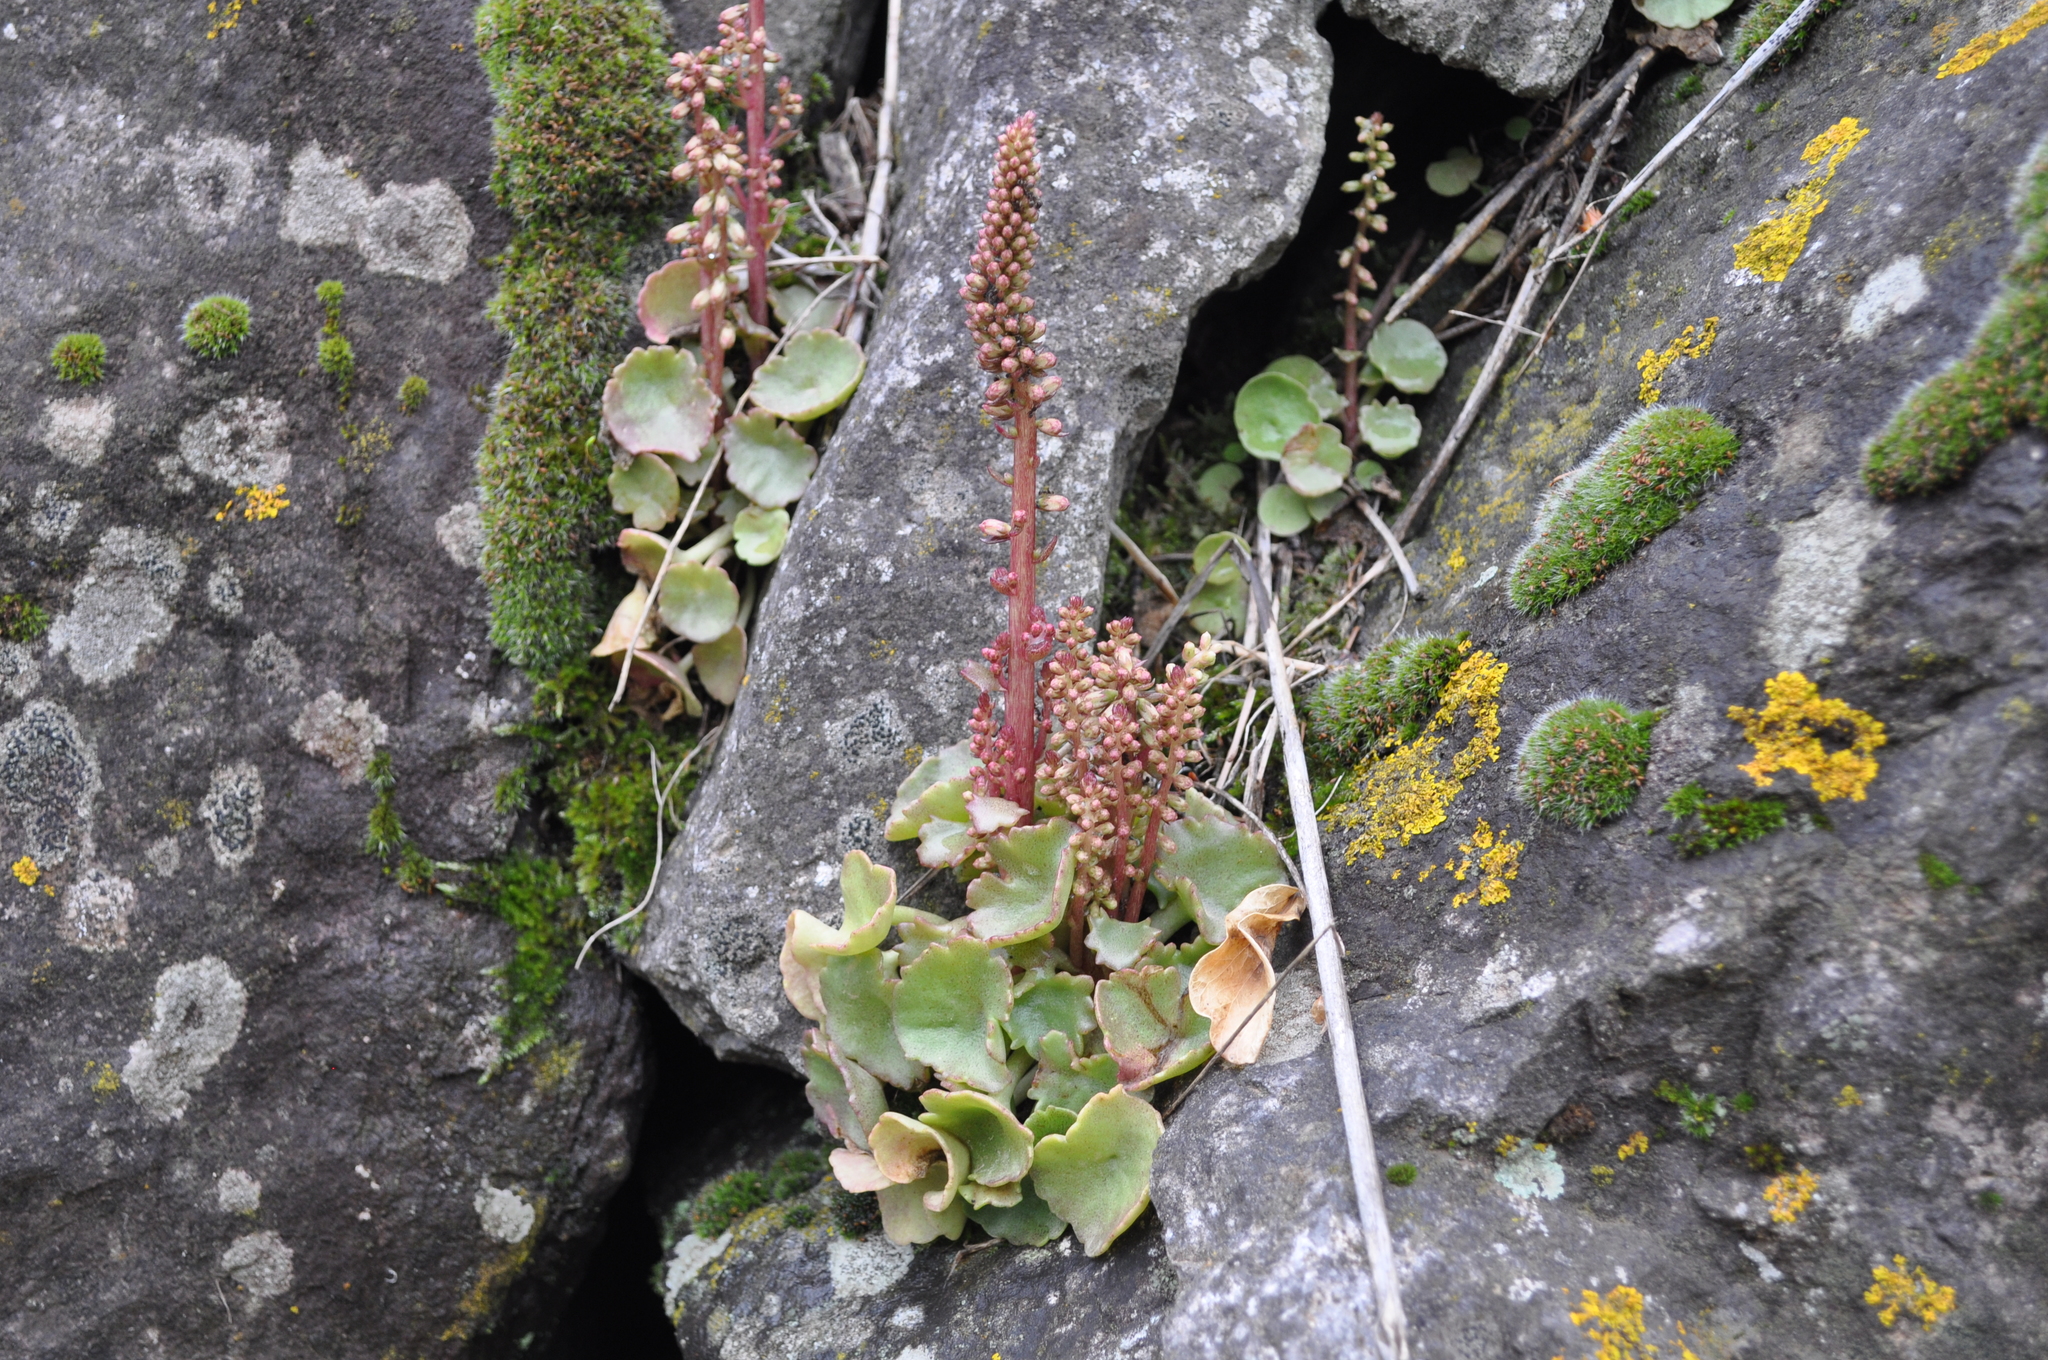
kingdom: Plantae
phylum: Tracheophyta
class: Magnoliopsida
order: Saxifragales
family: Crassulaceae
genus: Umbilicus
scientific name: Umbilicus rupestris
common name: Navelwort
